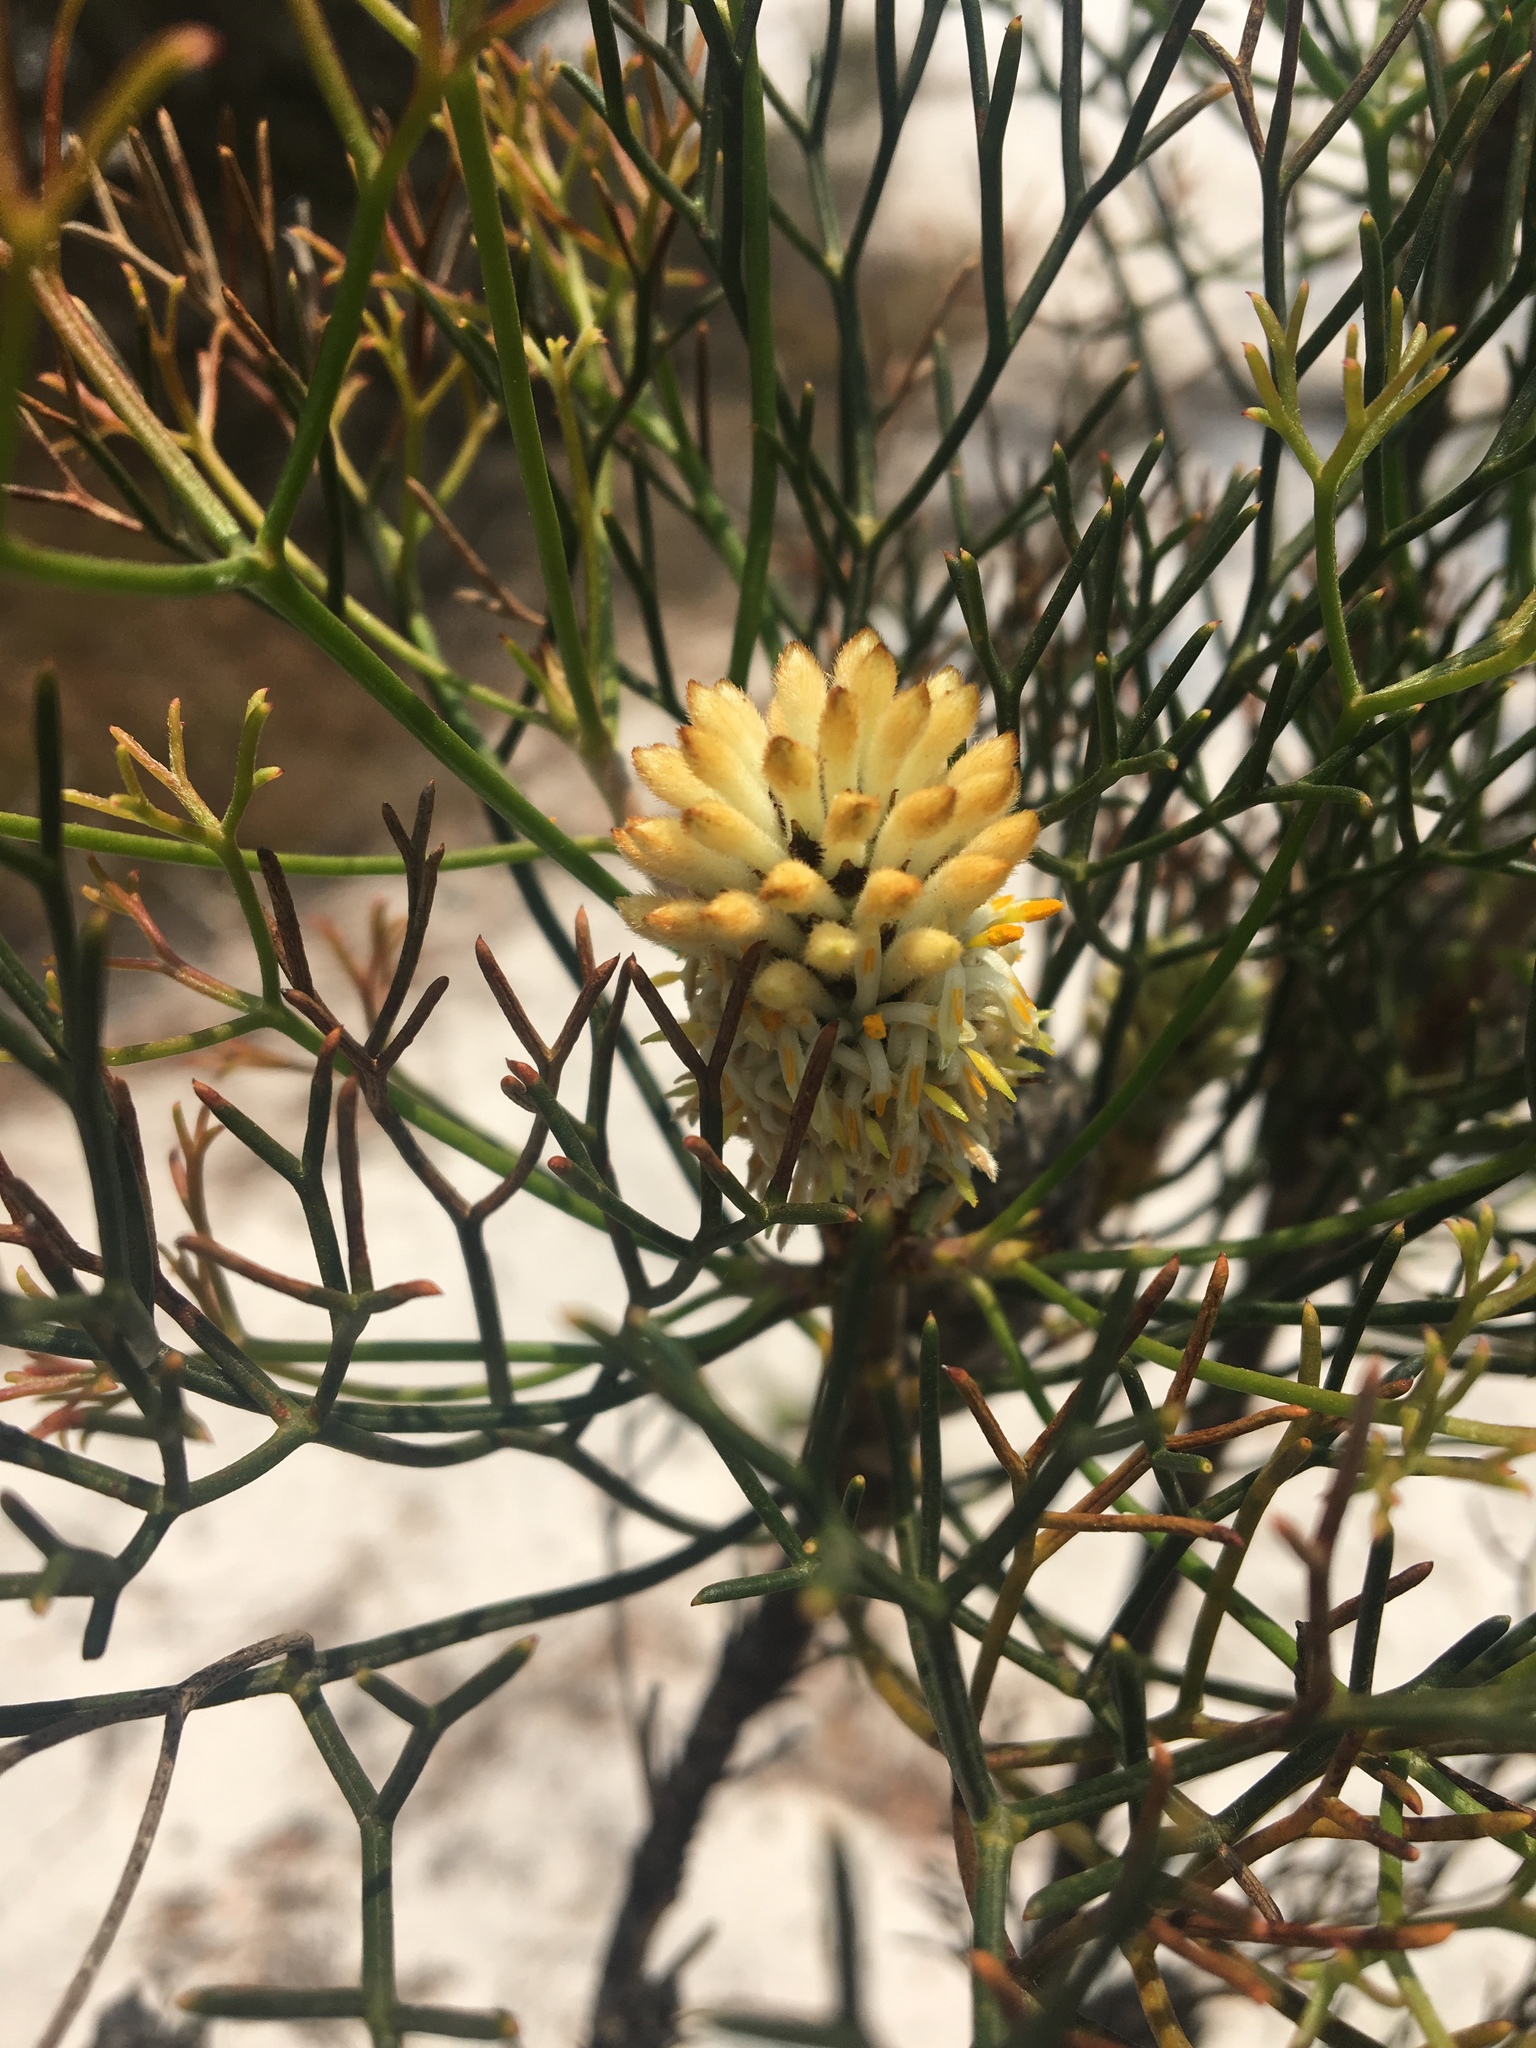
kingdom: Plantae
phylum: Tracheophyta
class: Magnoliopsida
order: Proteales
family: Proteaceae
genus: Petrophile
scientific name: Petrophile pulchella
